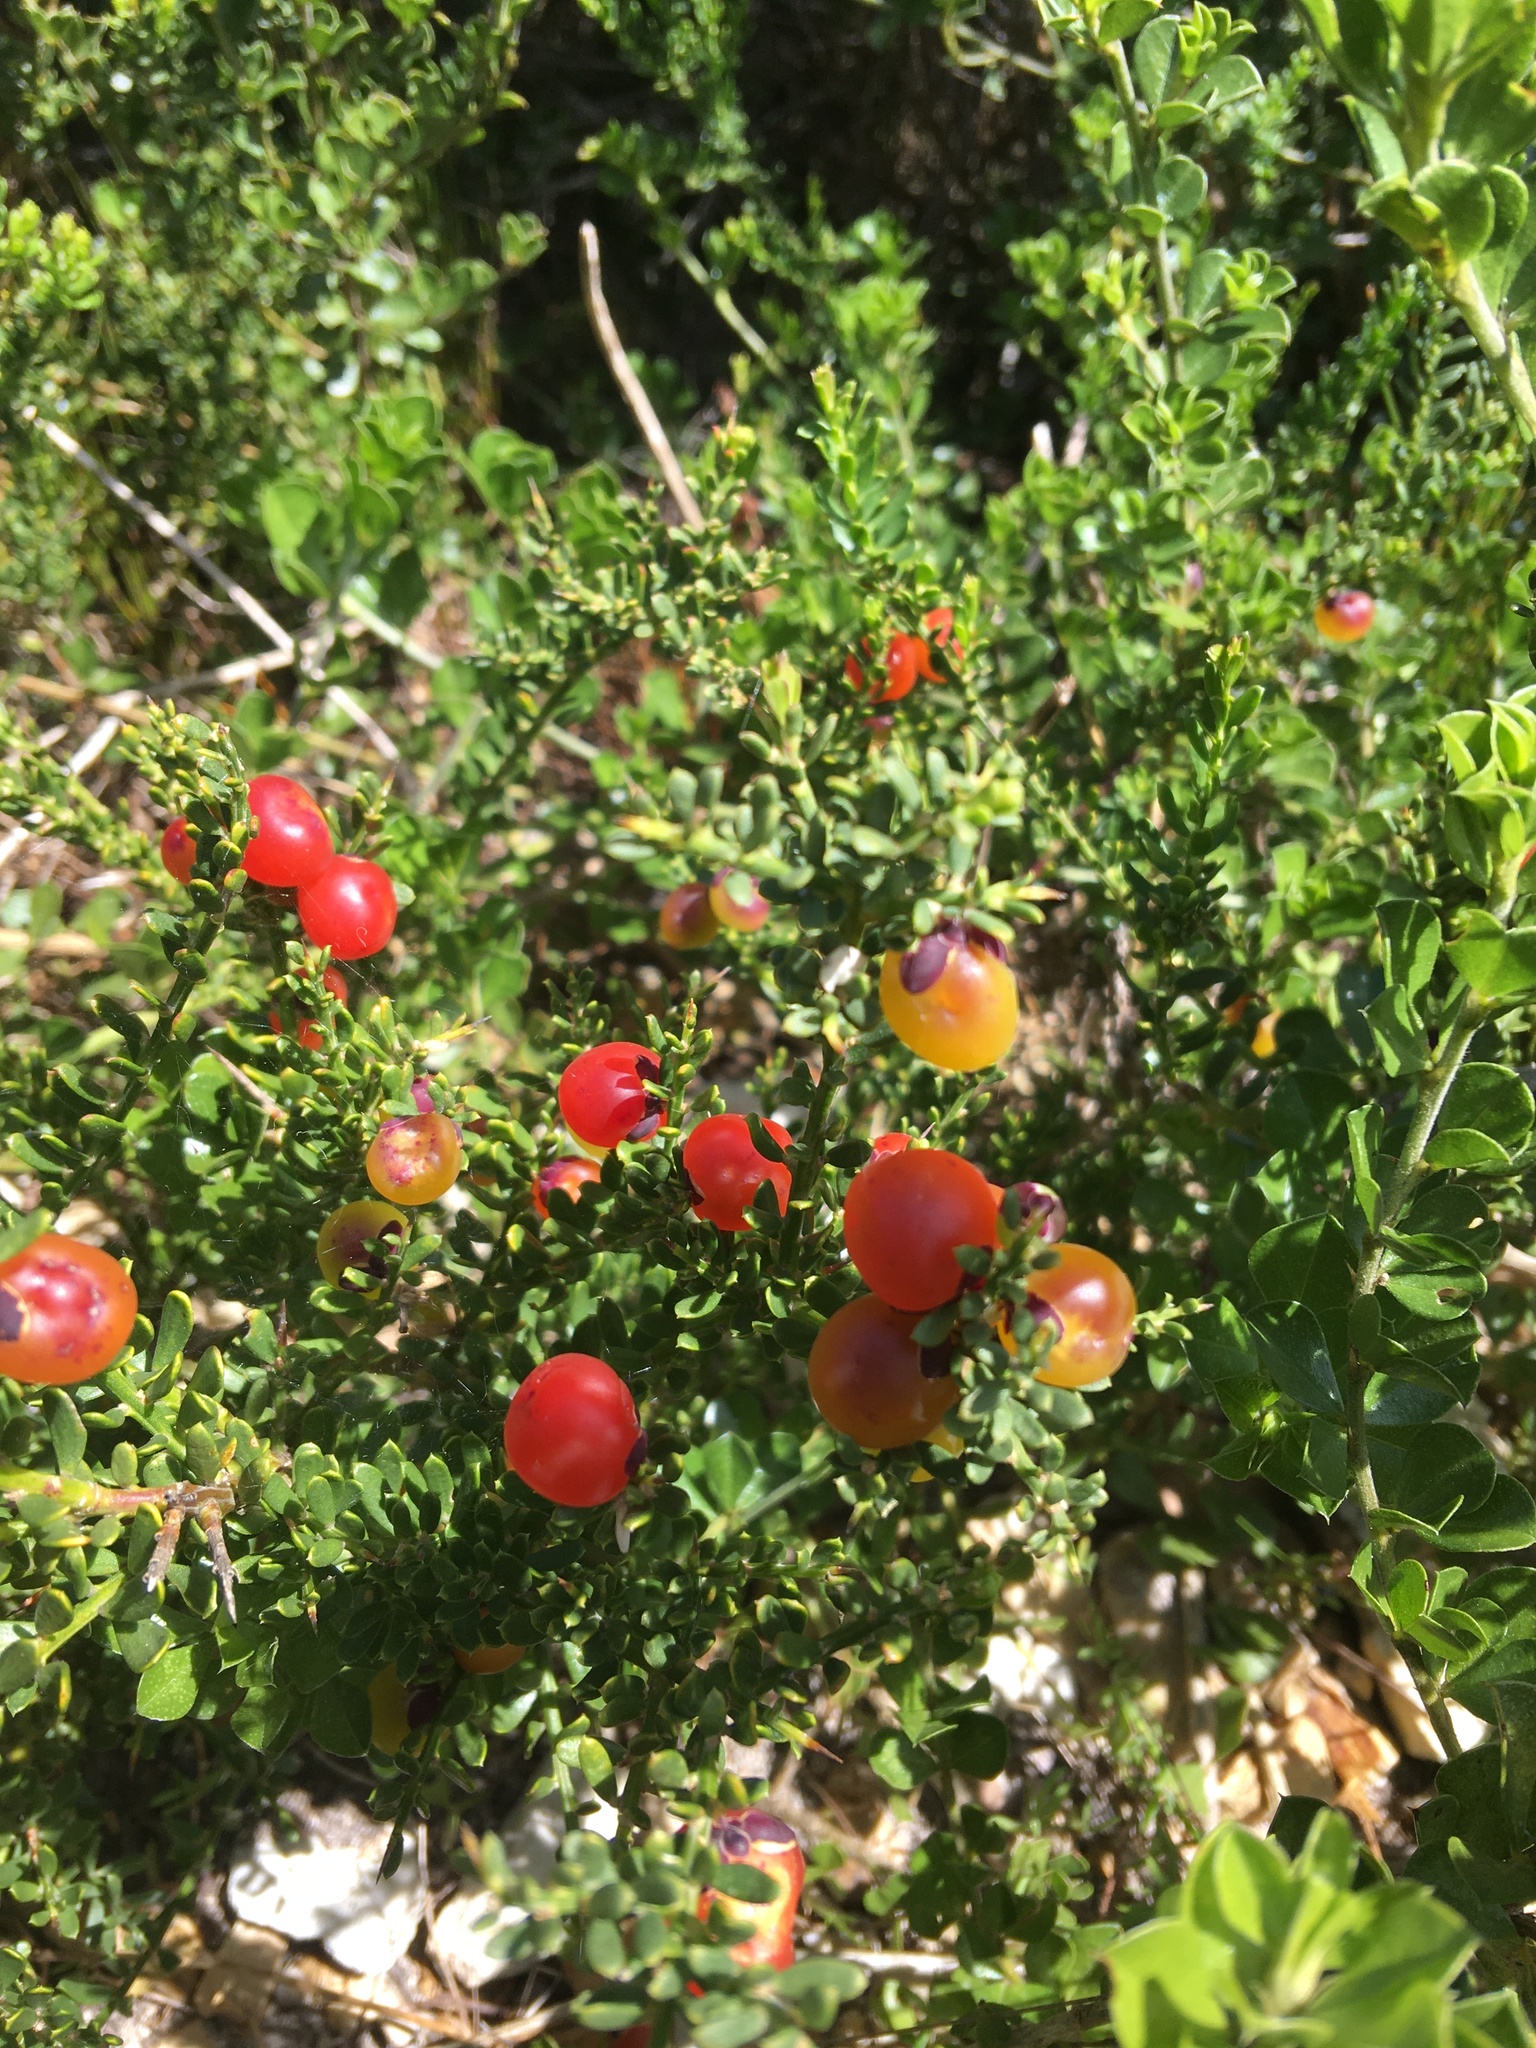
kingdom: Plantae
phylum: Tracheophyta
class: Magnoliopsida
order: Fabales
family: Polygalaceae
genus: Muraltia
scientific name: Muraltia spinosa
